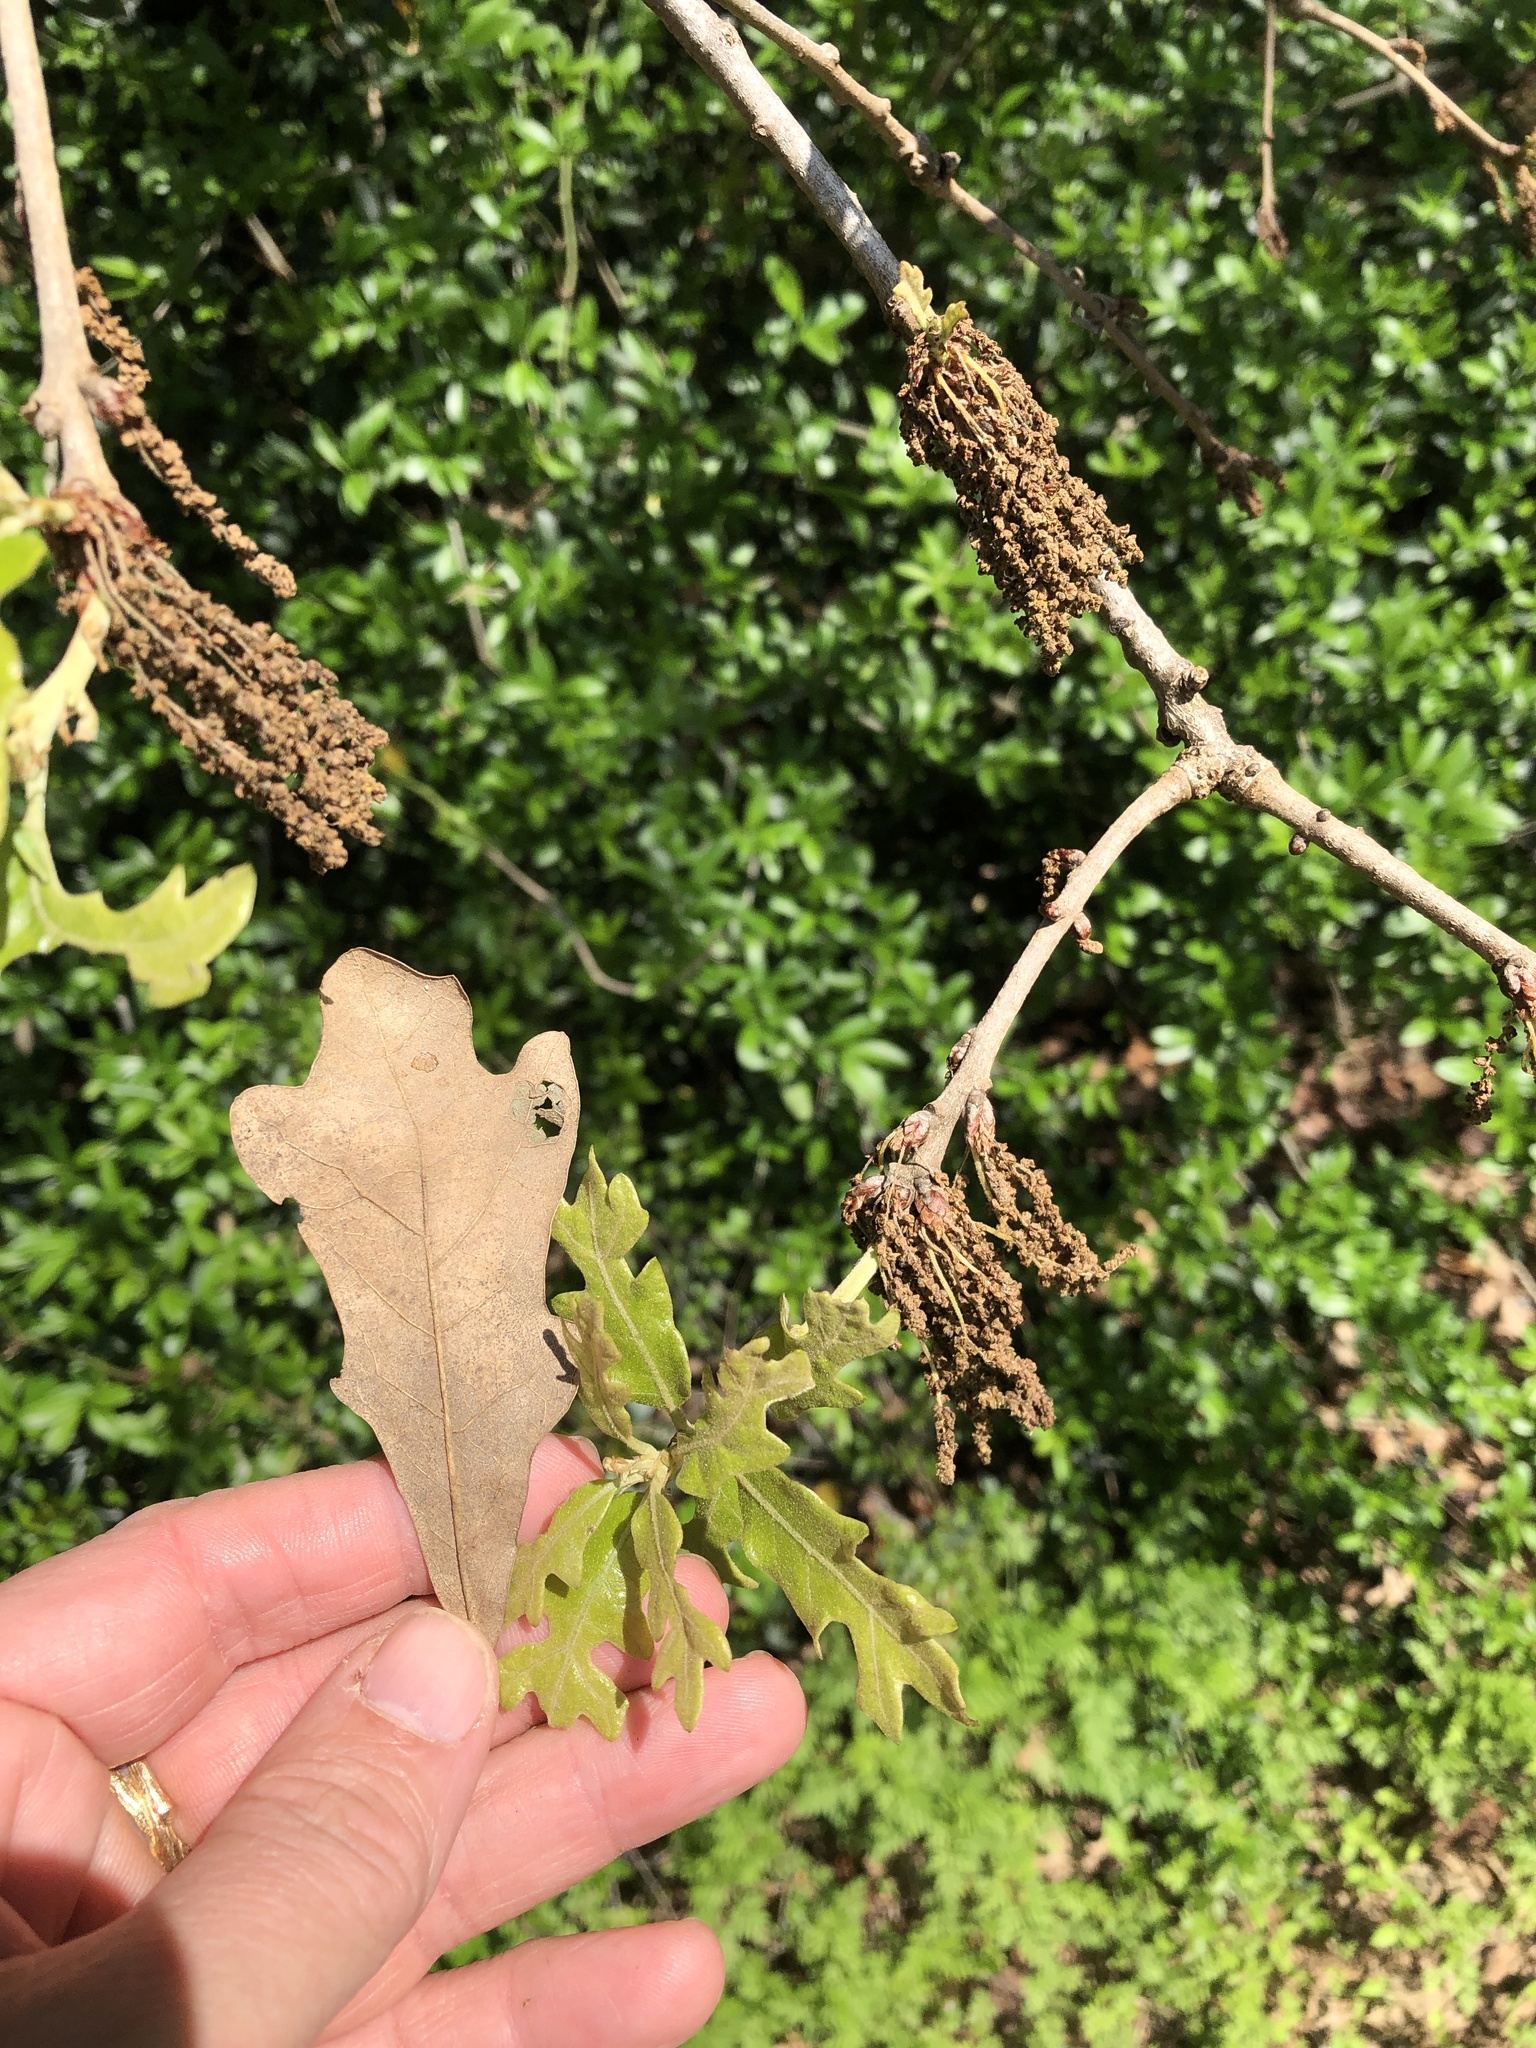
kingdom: Plantae
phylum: Tracheophyta
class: Magnoliopsida
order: Fagales
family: Fagaceae
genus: Quercus
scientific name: Quercus stellata
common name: Post oak
